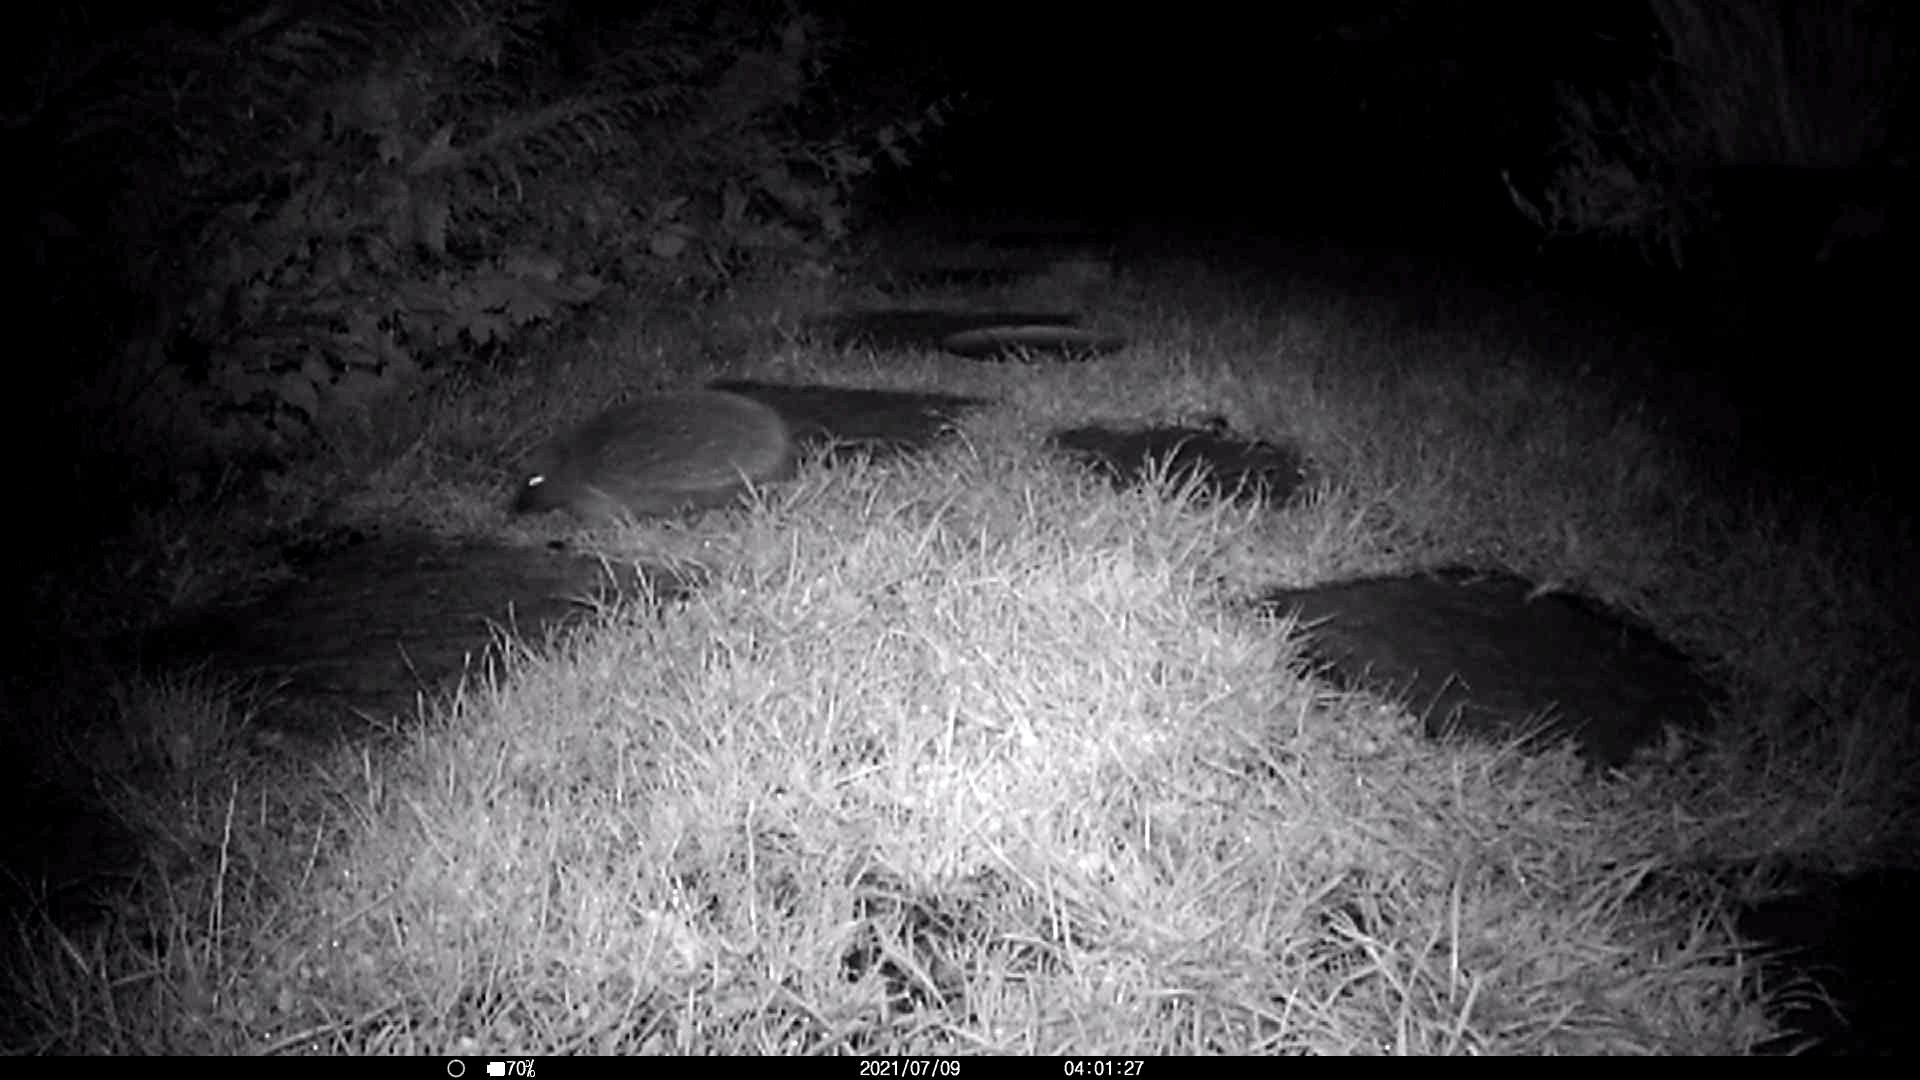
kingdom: Animalia
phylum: Chordata
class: Mammalia
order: Erinaceomorpha
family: Erinaceidae
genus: Erinaceus
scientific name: Erinaceus europaeus
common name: West european hedgehog
